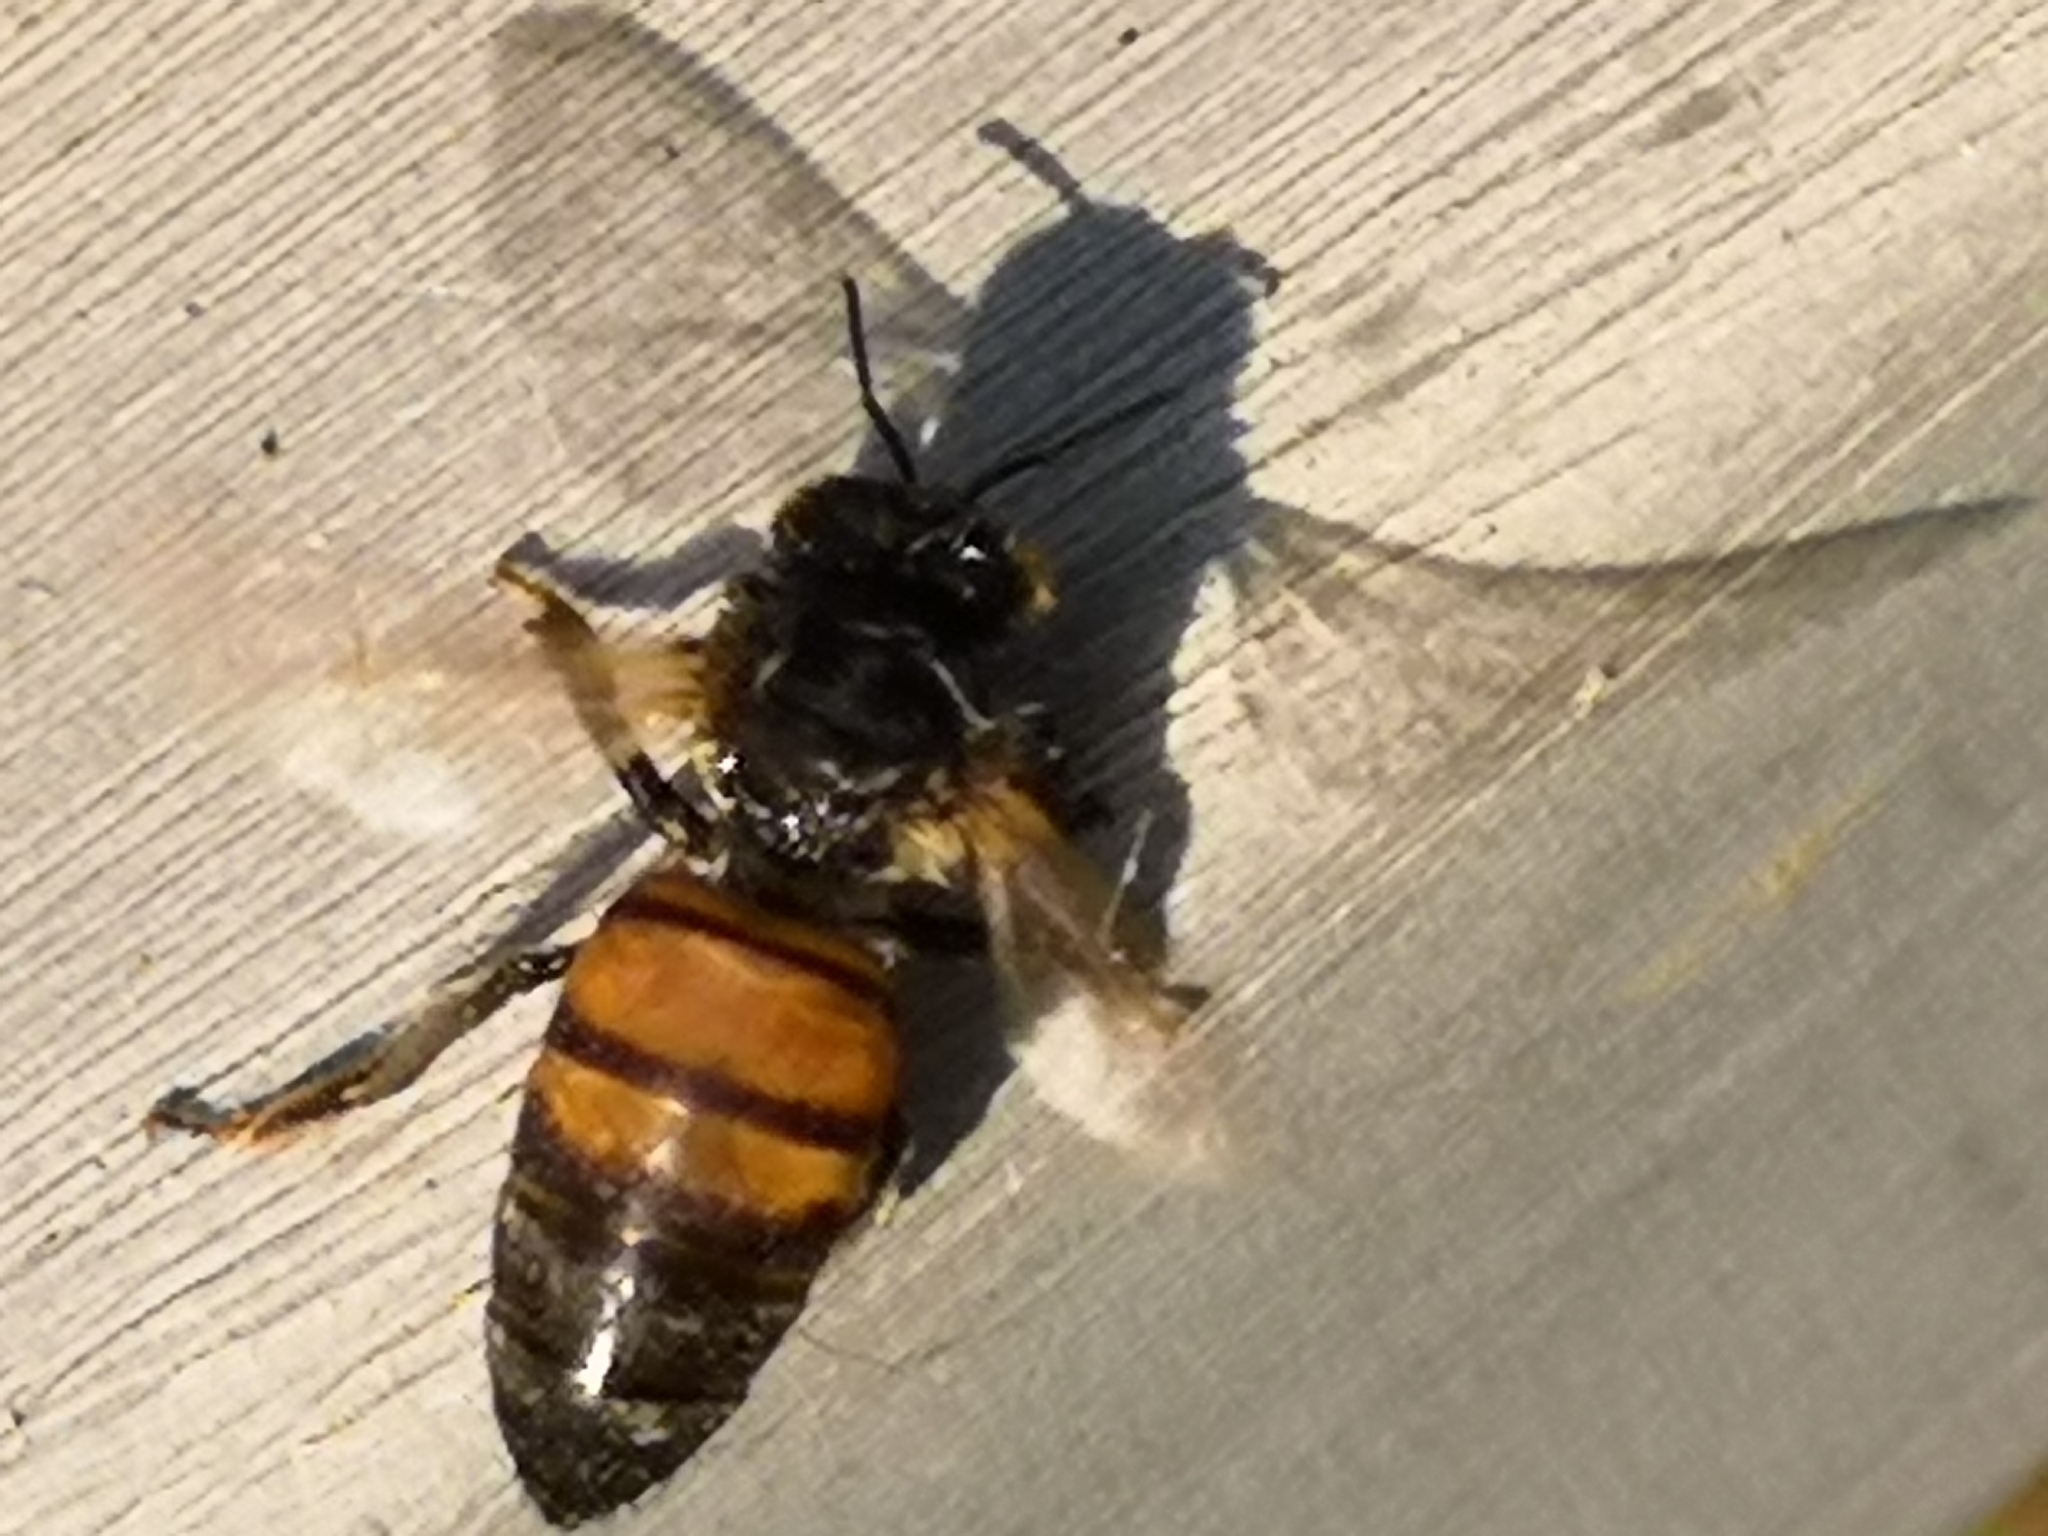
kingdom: Animalia
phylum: Arthropoda
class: Insecta
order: Hymenoptera
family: Apidae
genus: Apis
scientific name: Apis mellifera
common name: Honey bee
